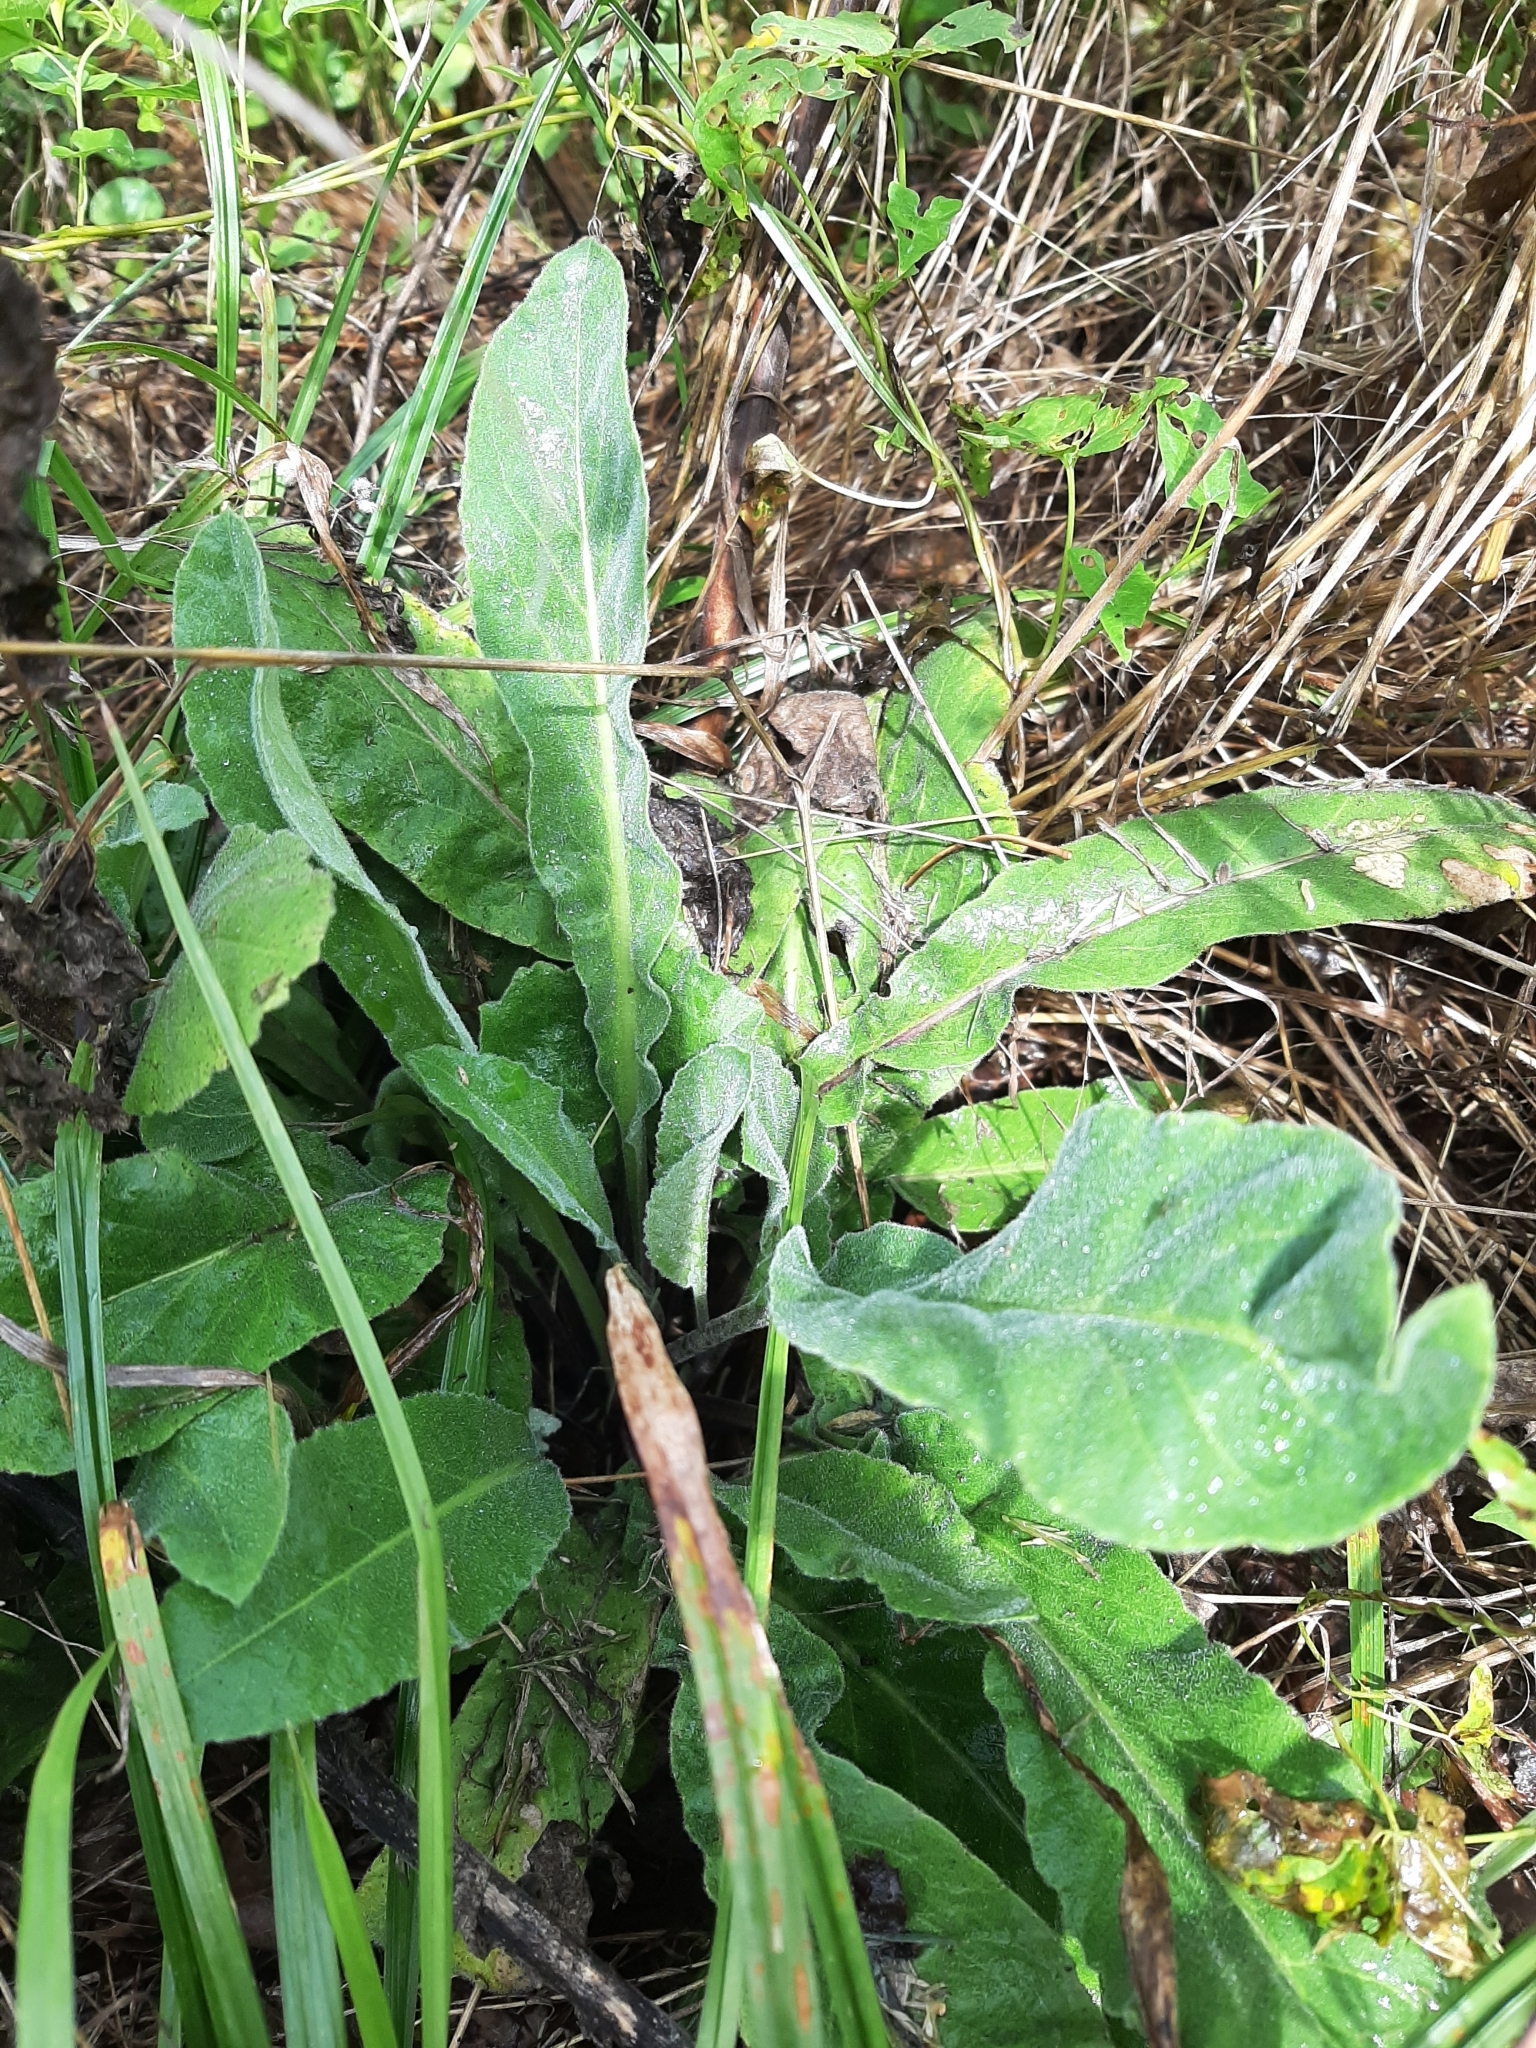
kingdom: Plantae
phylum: Tracheophyta
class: Magnoliopsida
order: Brassicales
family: Brassicaceae
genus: Hesperis
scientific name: Hesperis matronalis
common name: Dame's-violet
